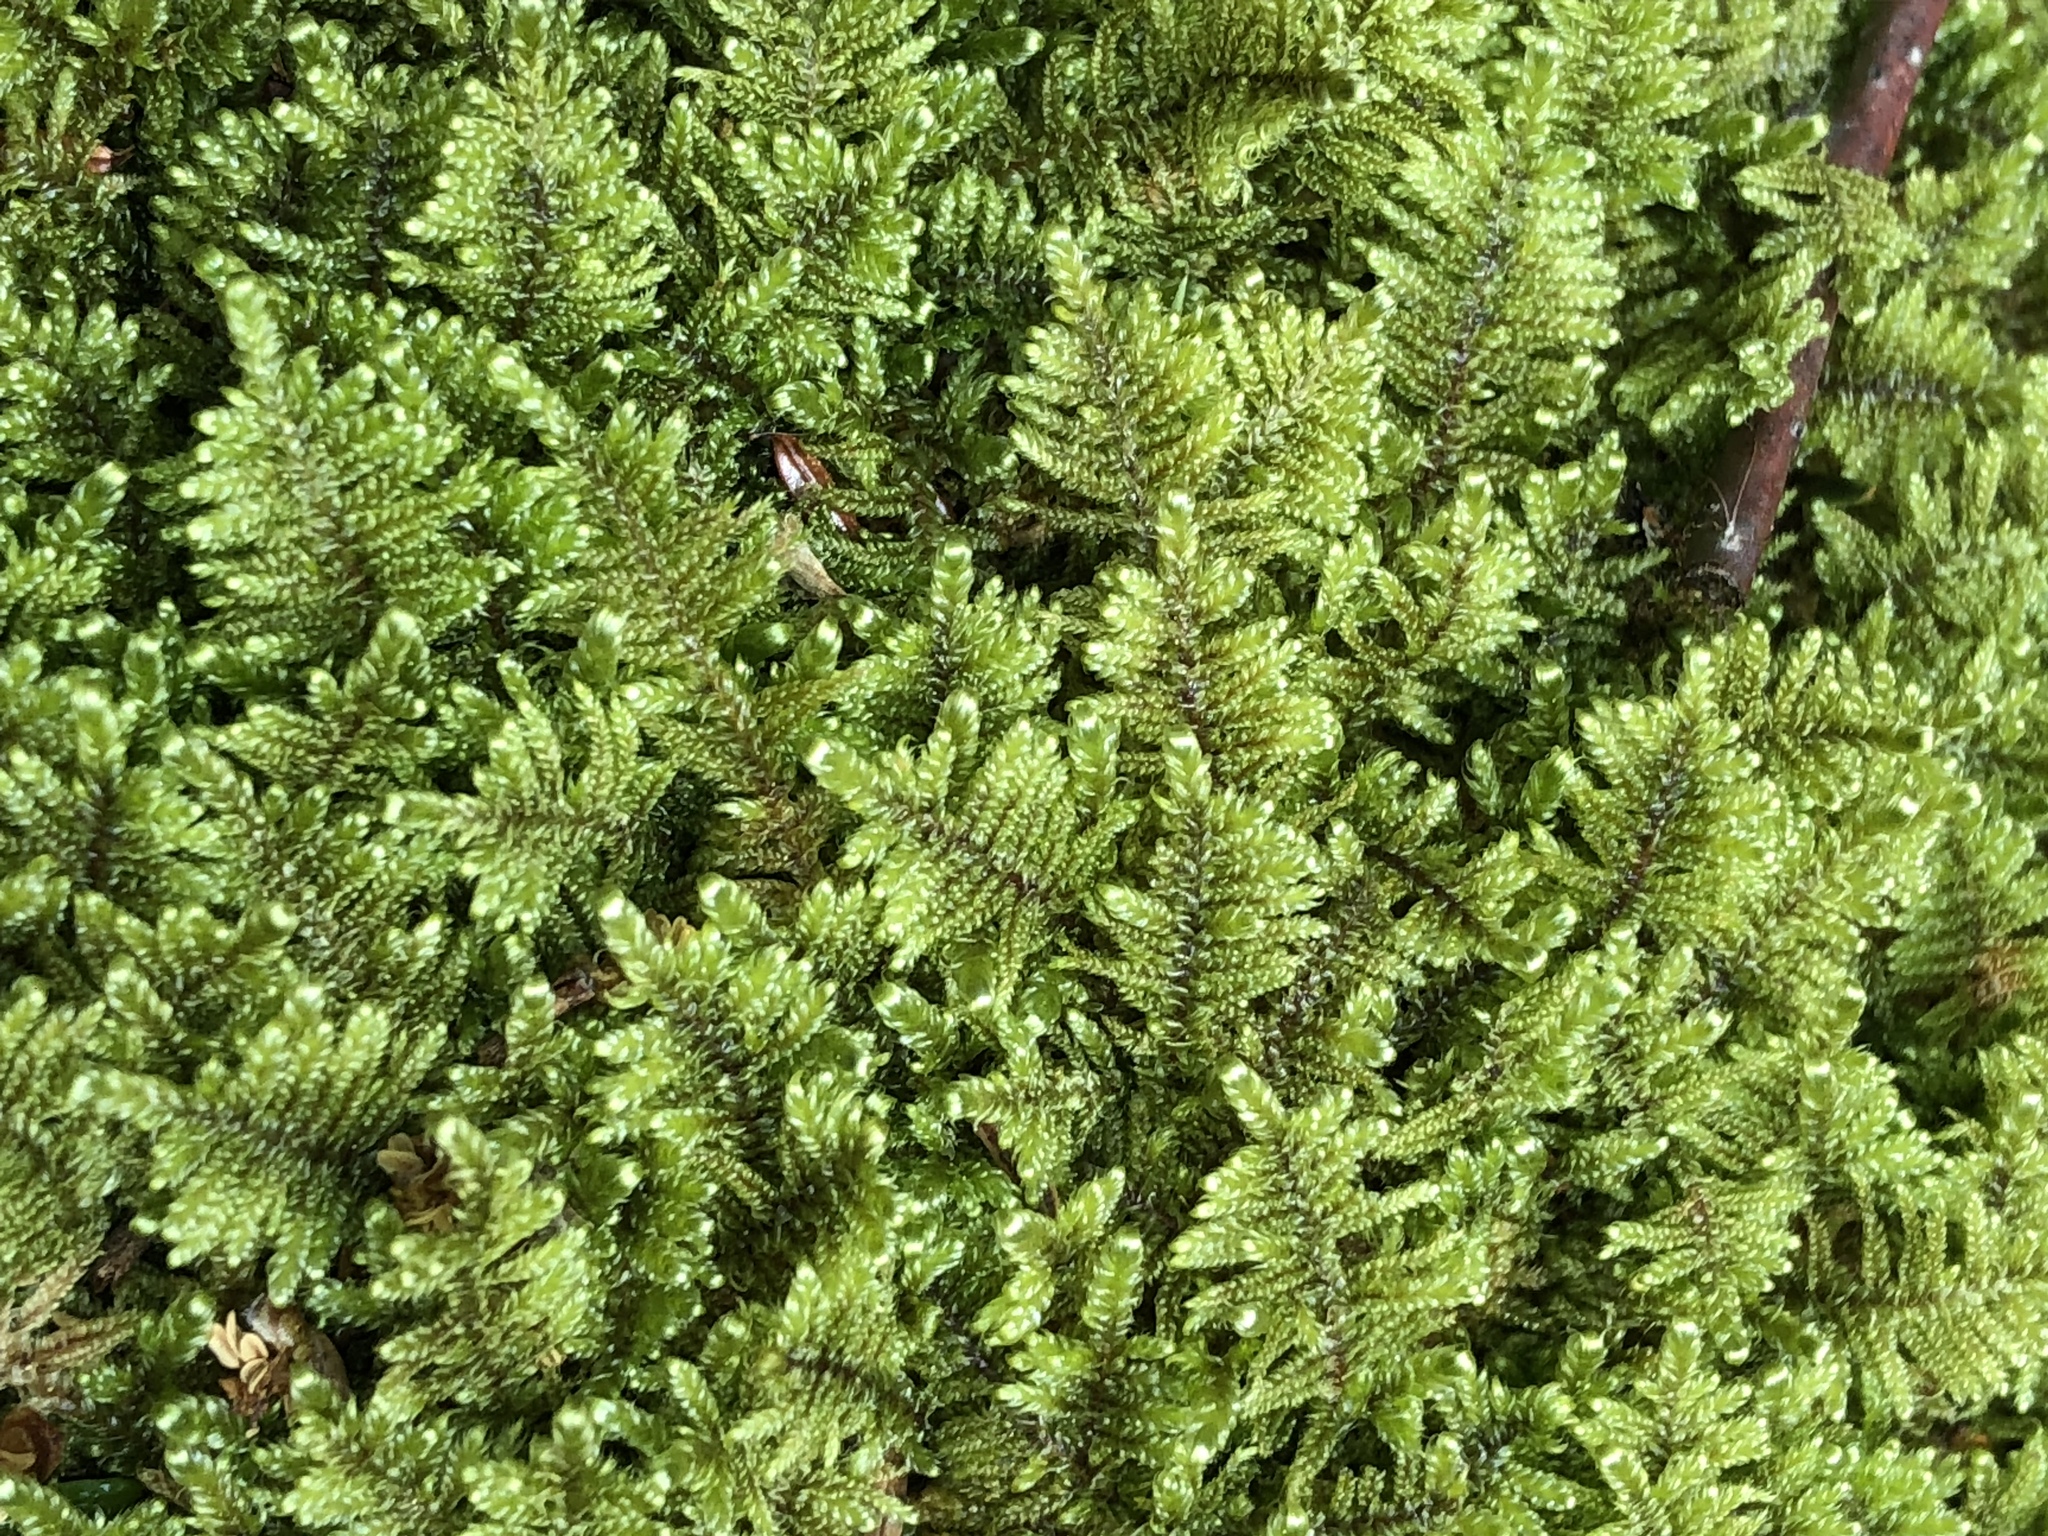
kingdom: Plantae
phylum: Bryophyta
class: Bryopsida
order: Hypnales
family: Callicladiaceae
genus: Callicladium
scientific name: Callicladium imponens
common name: Brocade moss
